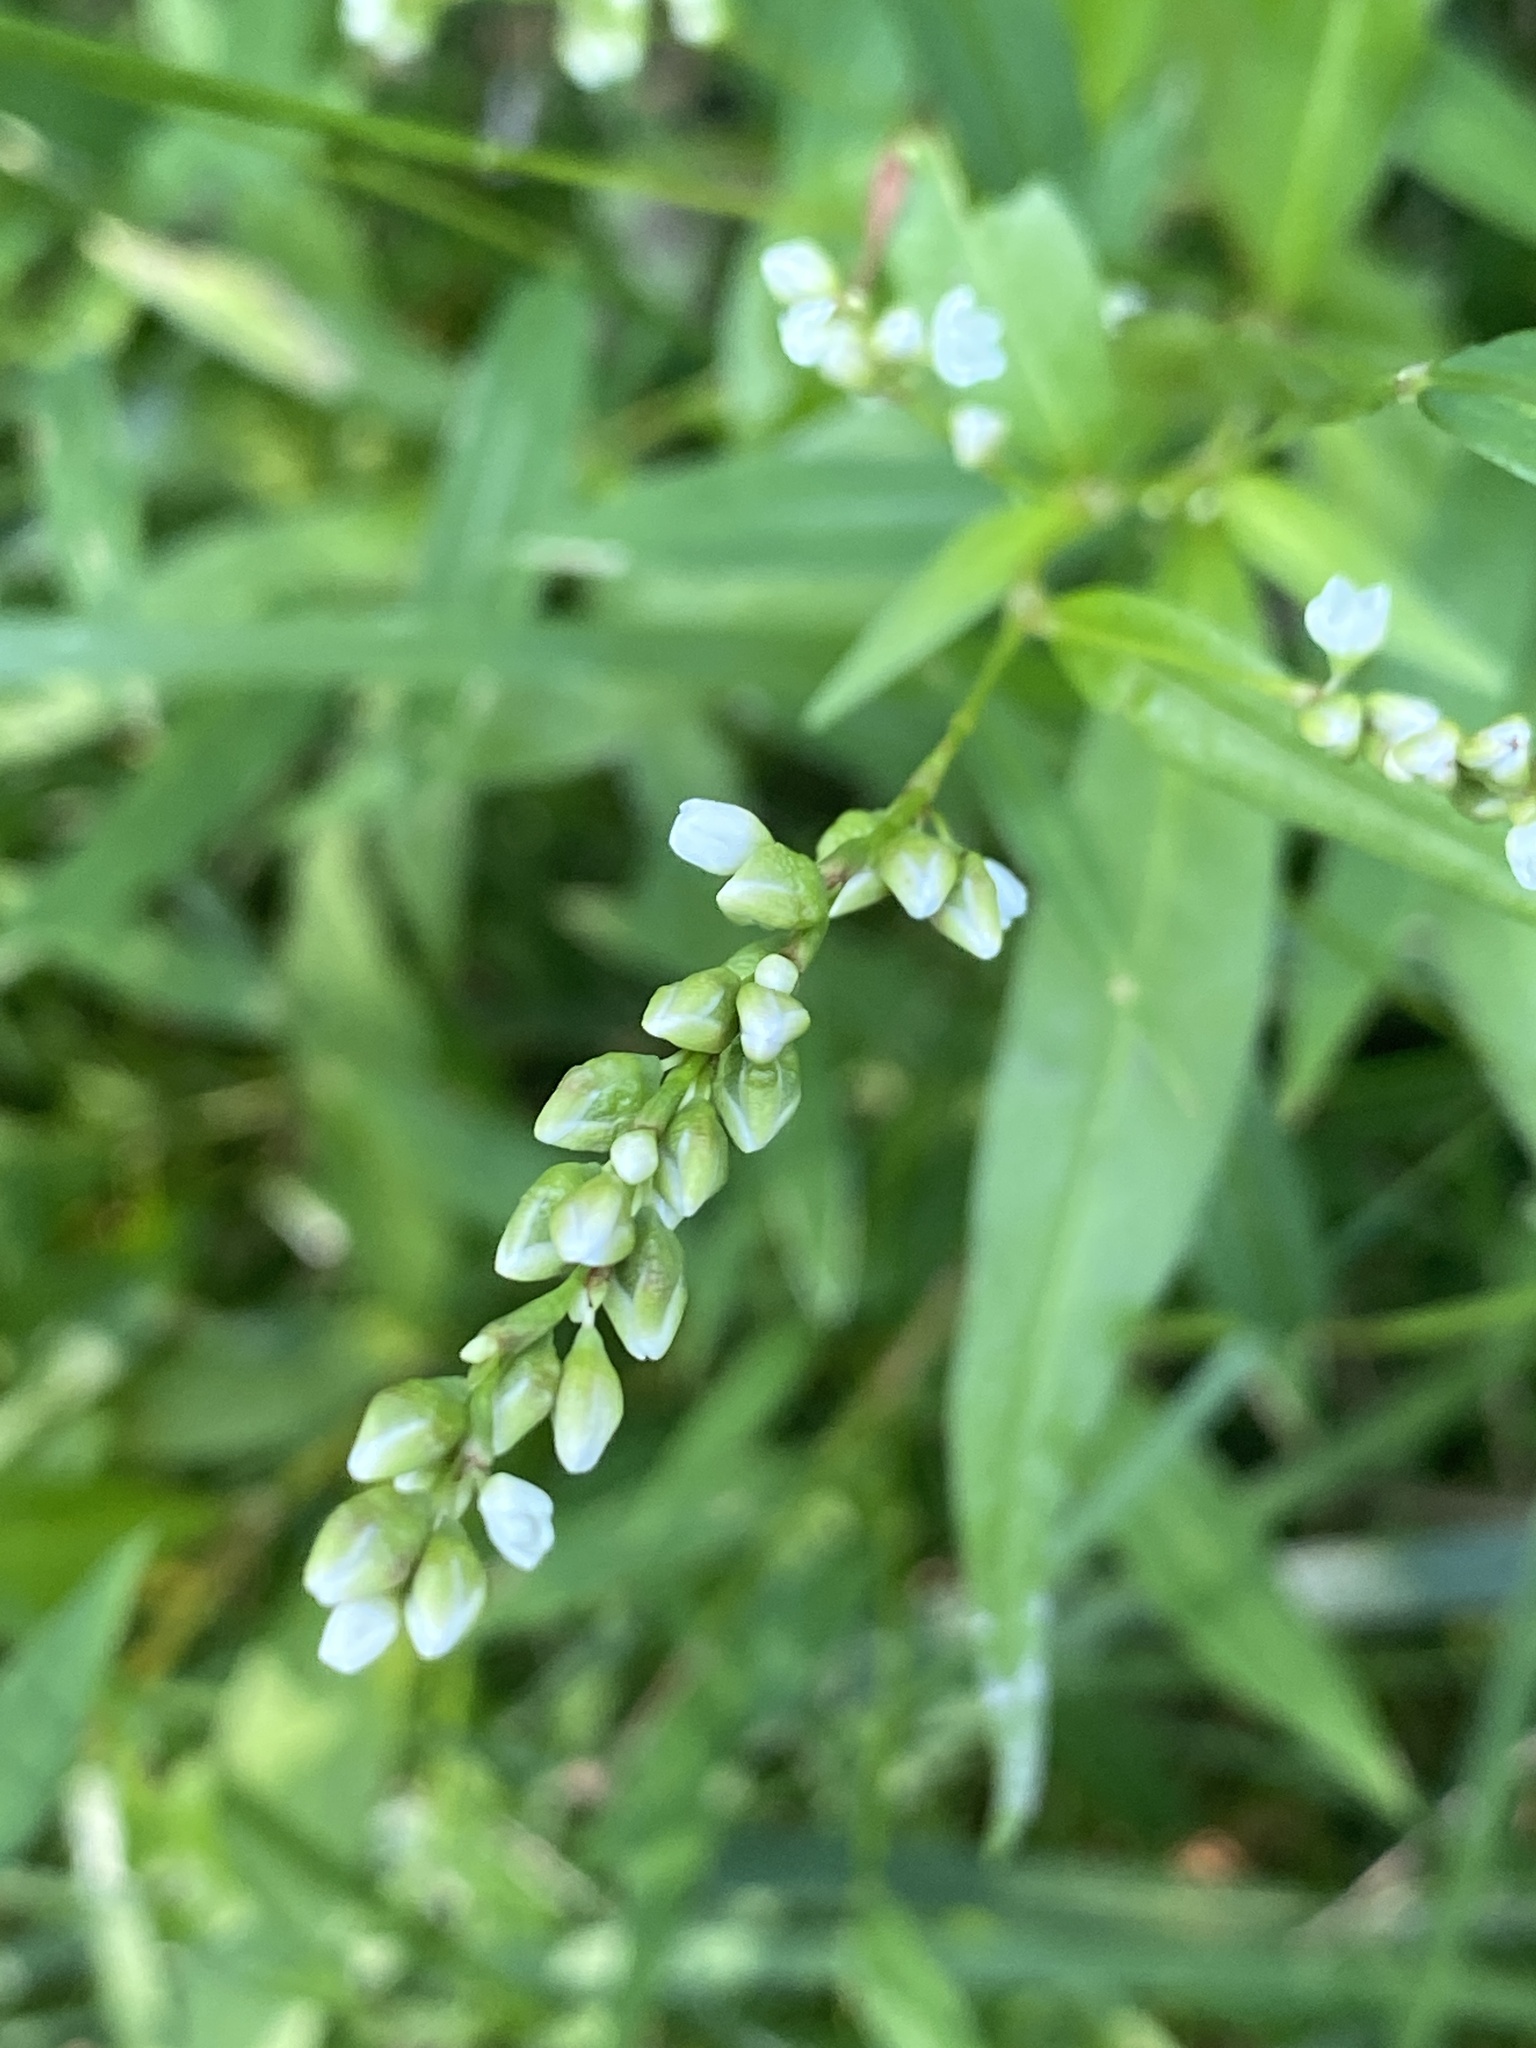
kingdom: Plantae
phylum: Tracheophyta
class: Magnoliopsida
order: Caryophyllales
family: Polygonaceae
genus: Persicaria
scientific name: Persicaria punctata
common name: Dotted smartweed
